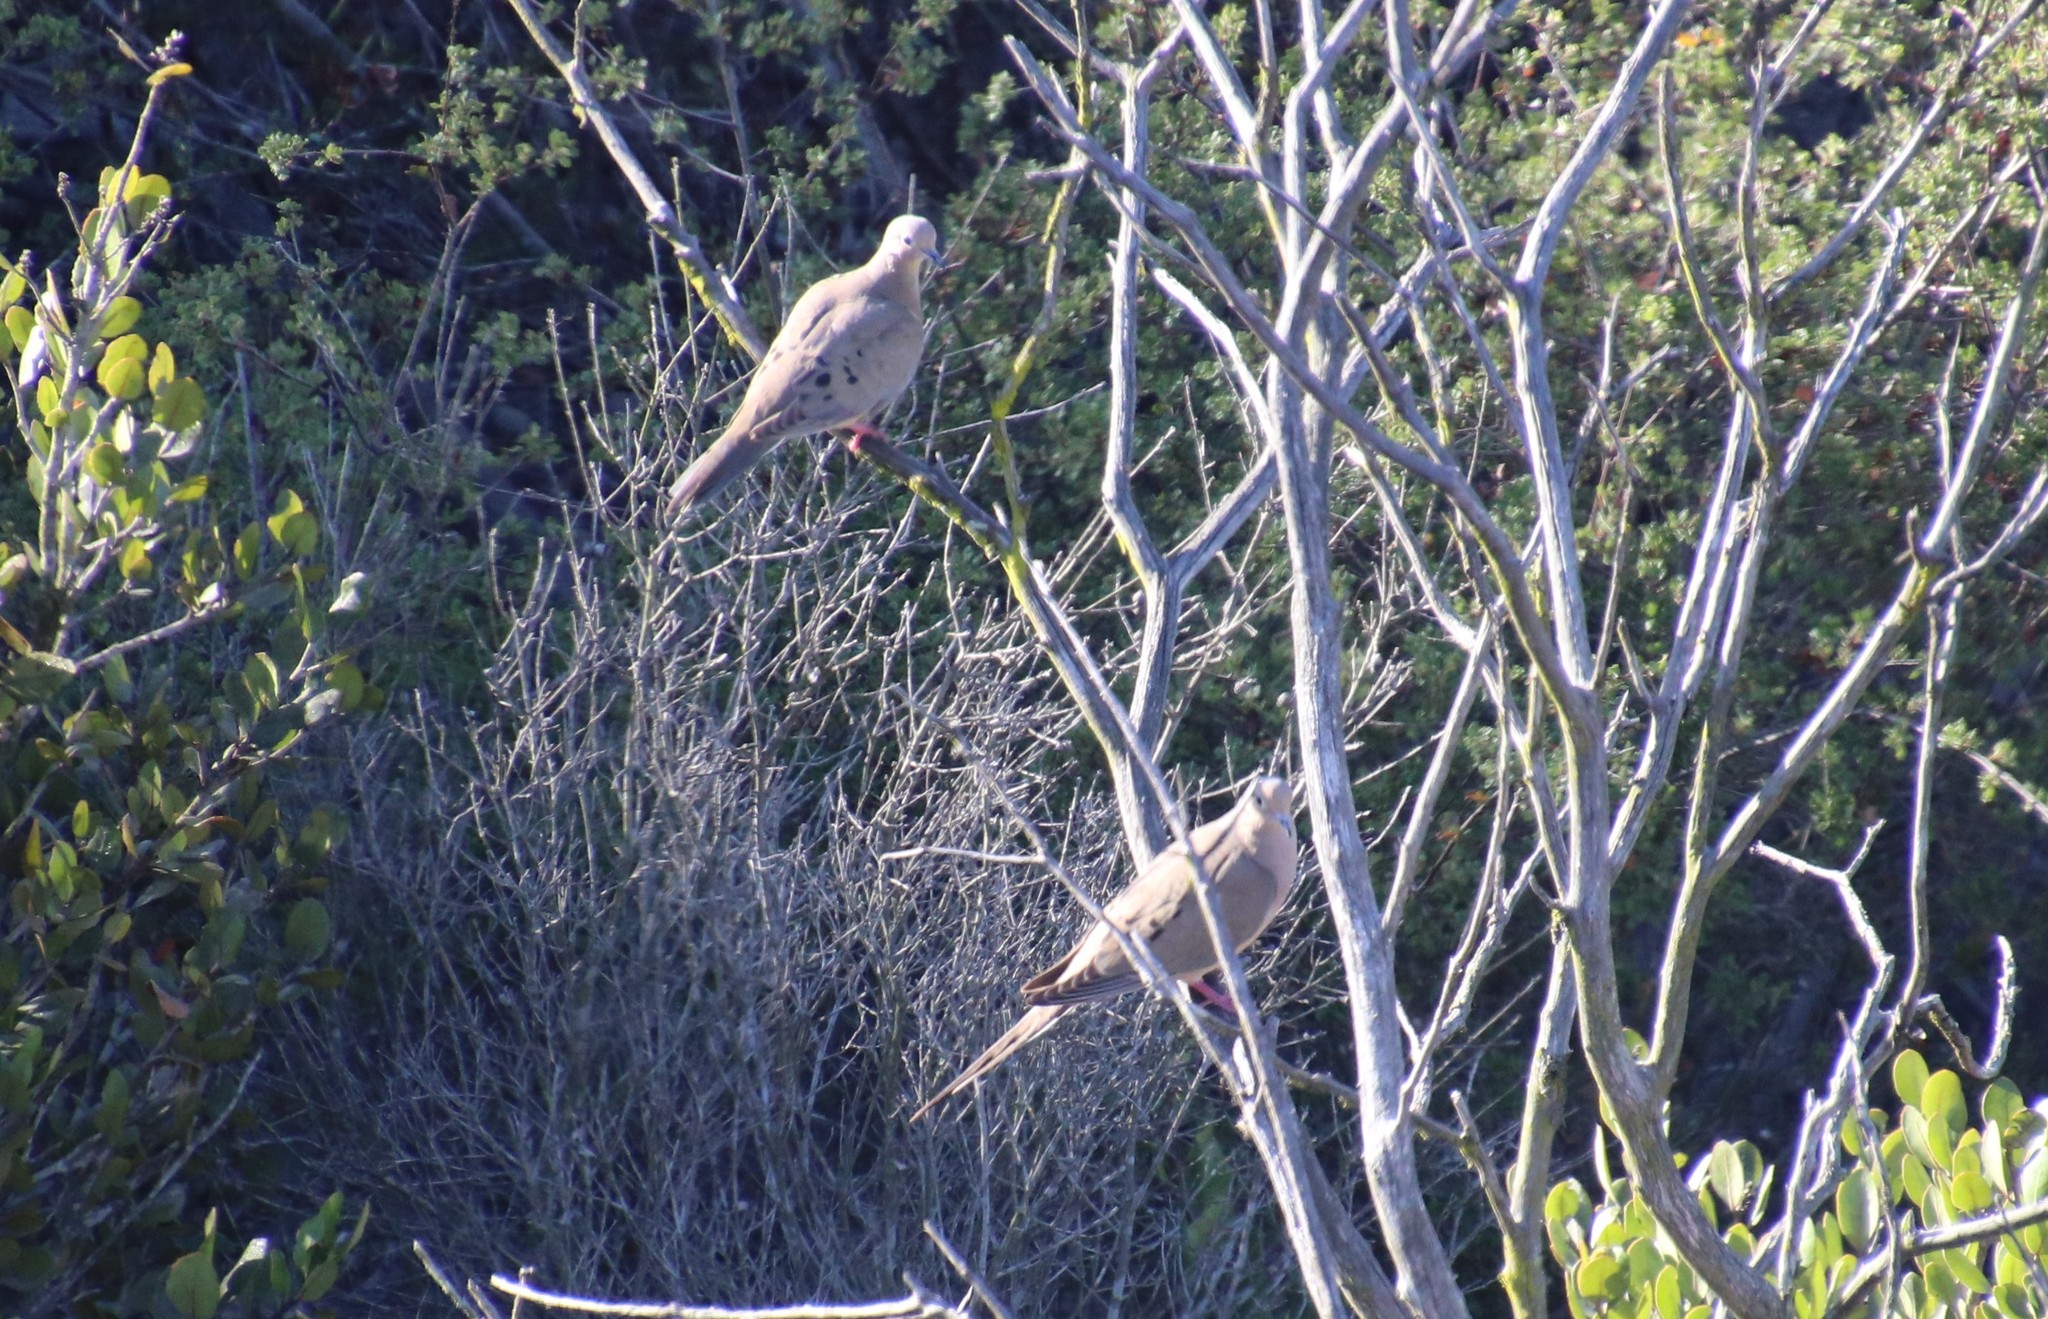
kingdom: Animalia
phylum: Chordata
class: Aves
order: Columbiformes
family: Columbidae
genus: Zenaida
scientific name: Zenaida macroura
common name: Mourning dove
